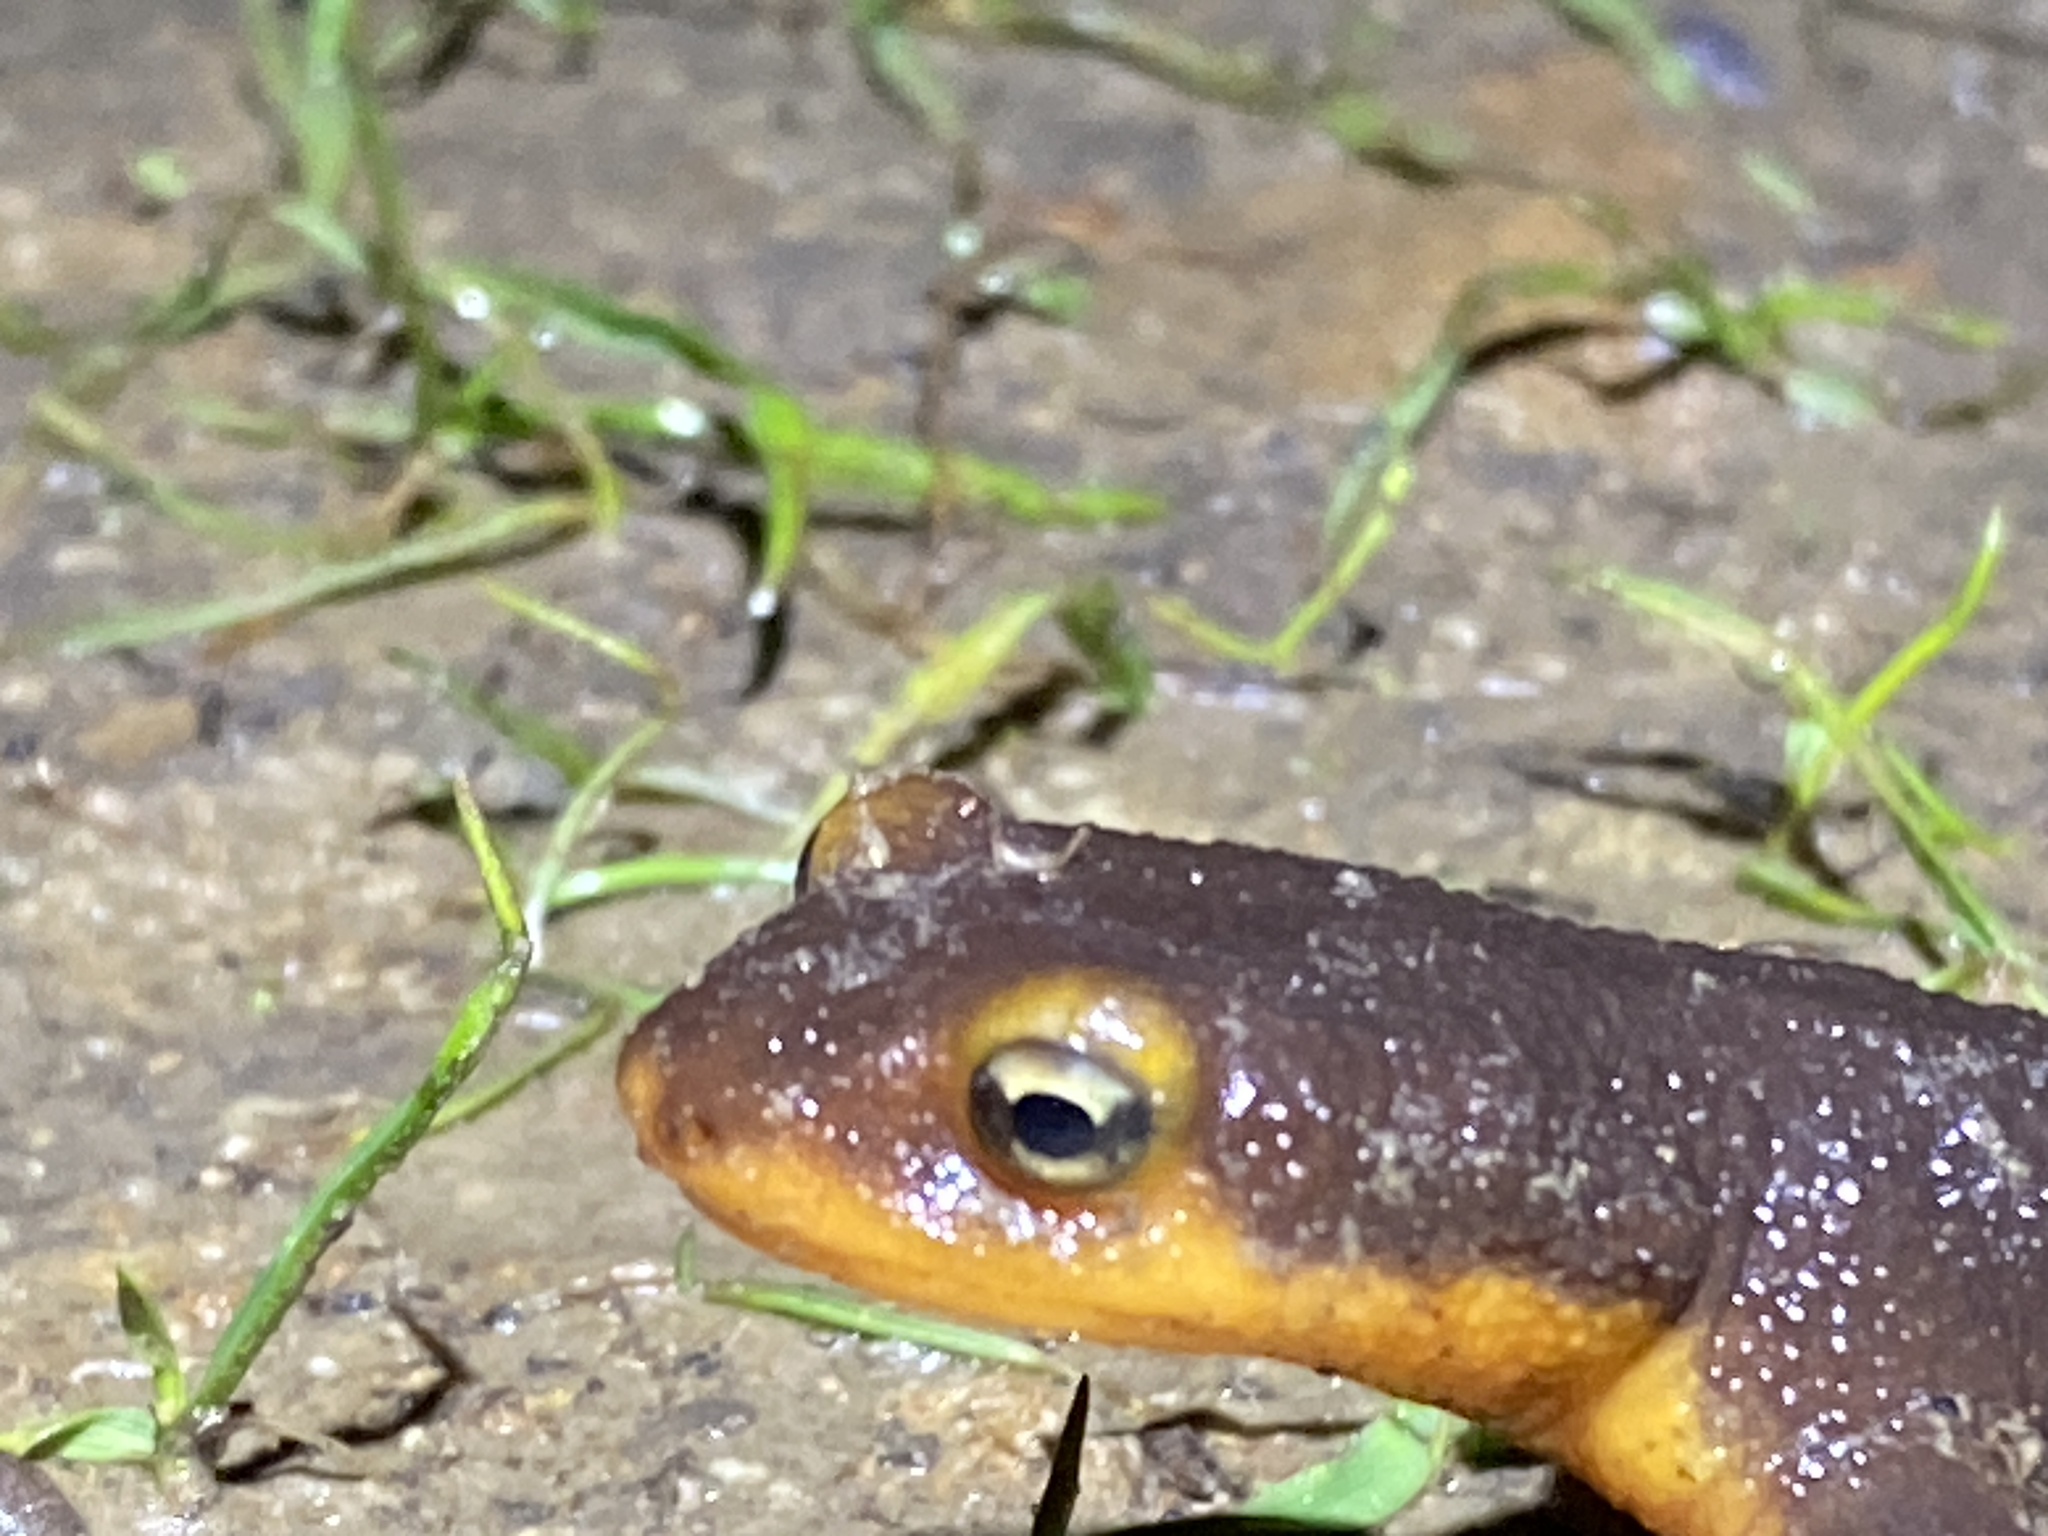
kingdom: Animalia
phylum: Chordata
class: Amphibia
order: Caudata
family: Salamandridae
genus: Taricha
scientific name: Taricha torosa
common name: California newt
